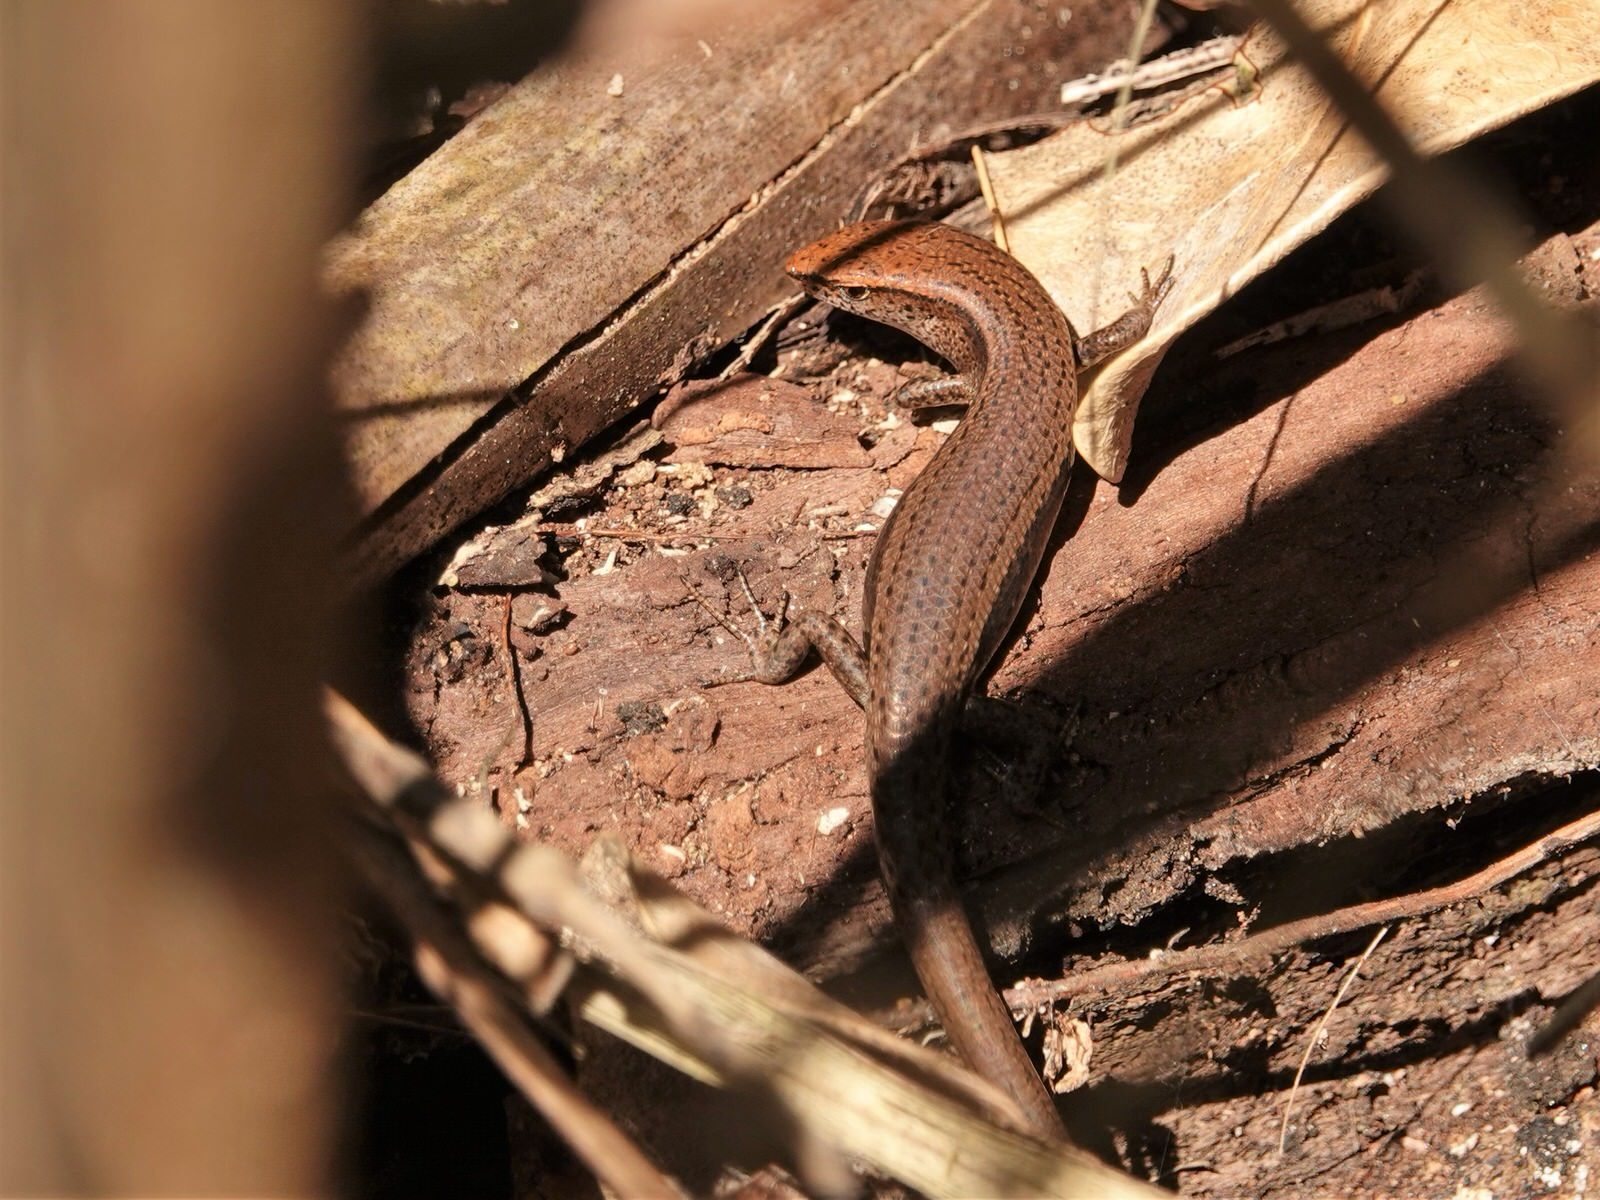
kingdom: Animalia
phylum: Chordata
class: Squamata
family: Scincidae
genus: Lampropholis
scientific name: Lampropholis delicata
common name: Plague skink
